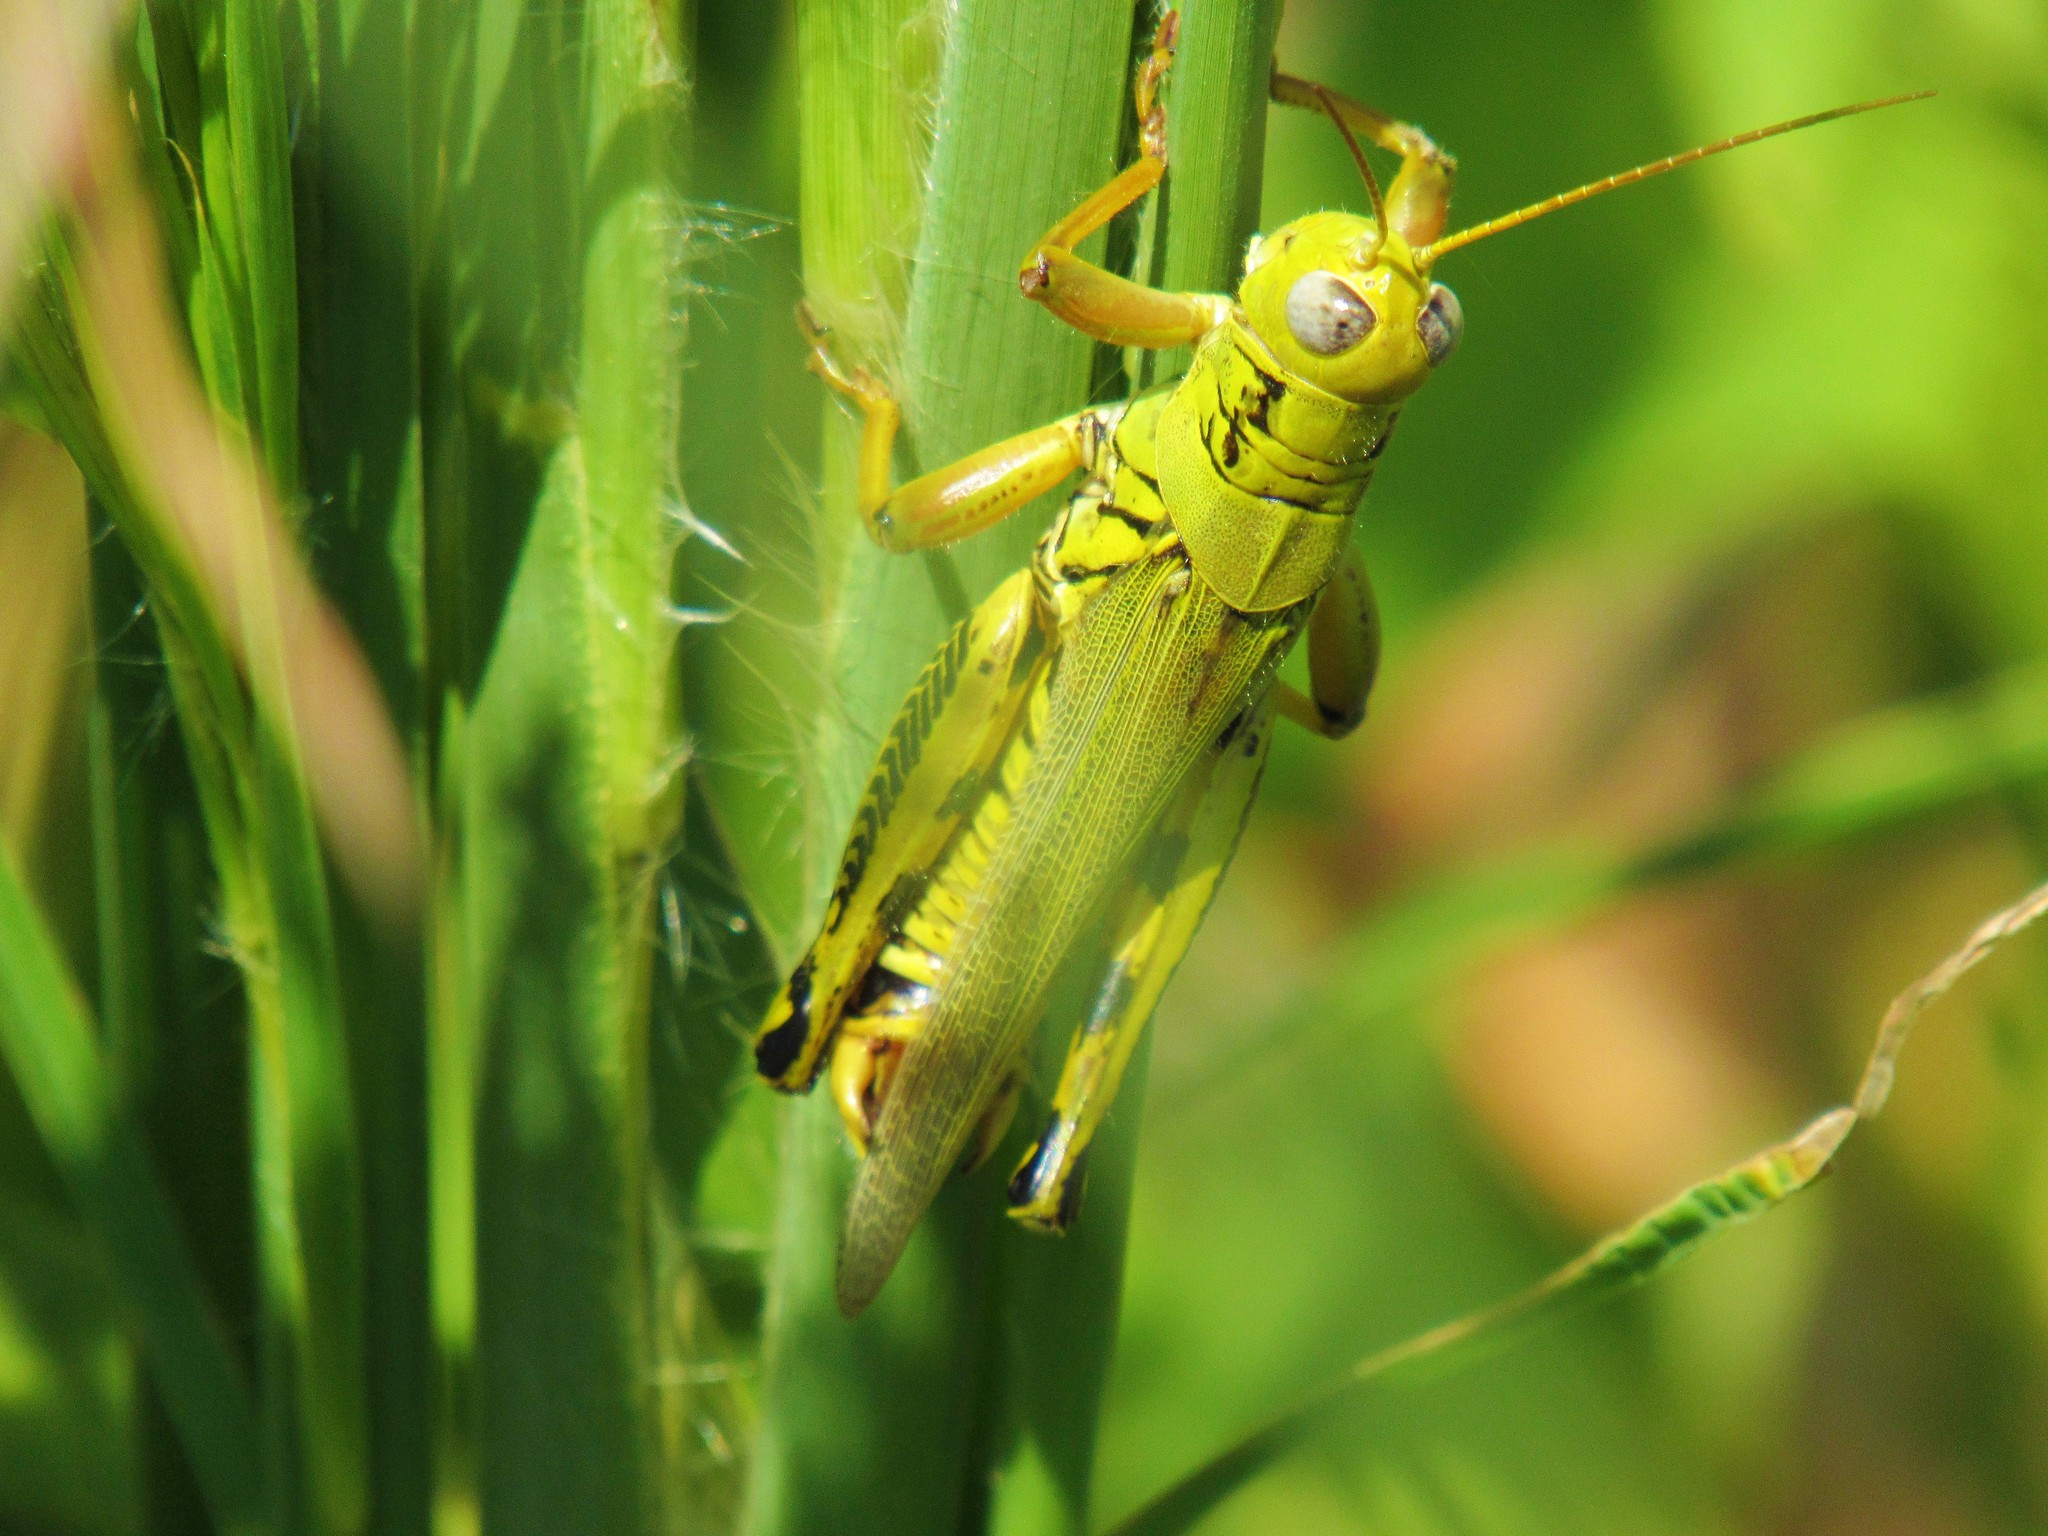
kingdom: Animalia
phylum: Arthropoda
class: Insecta
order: Orthoptera
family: Acrididae
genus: Melanoplus
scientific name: Melanoplus differentialis
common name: Differential grasshopper
